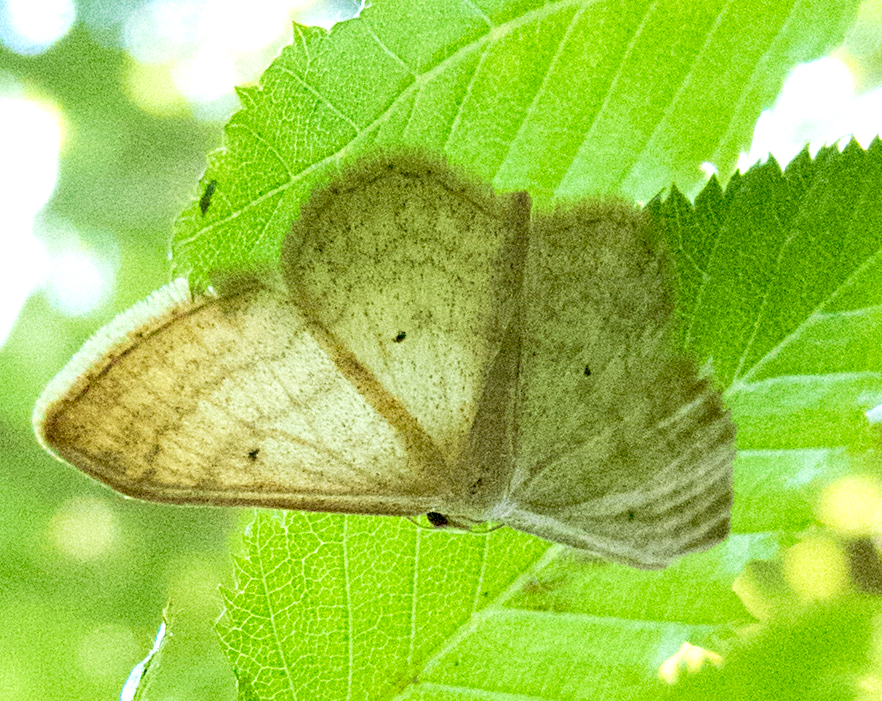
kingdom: Animalia
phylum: Arthropoda
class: Insecta
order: Lepidoptera
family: Geometridae
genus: Idaea
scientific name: Idaea maritimaria
